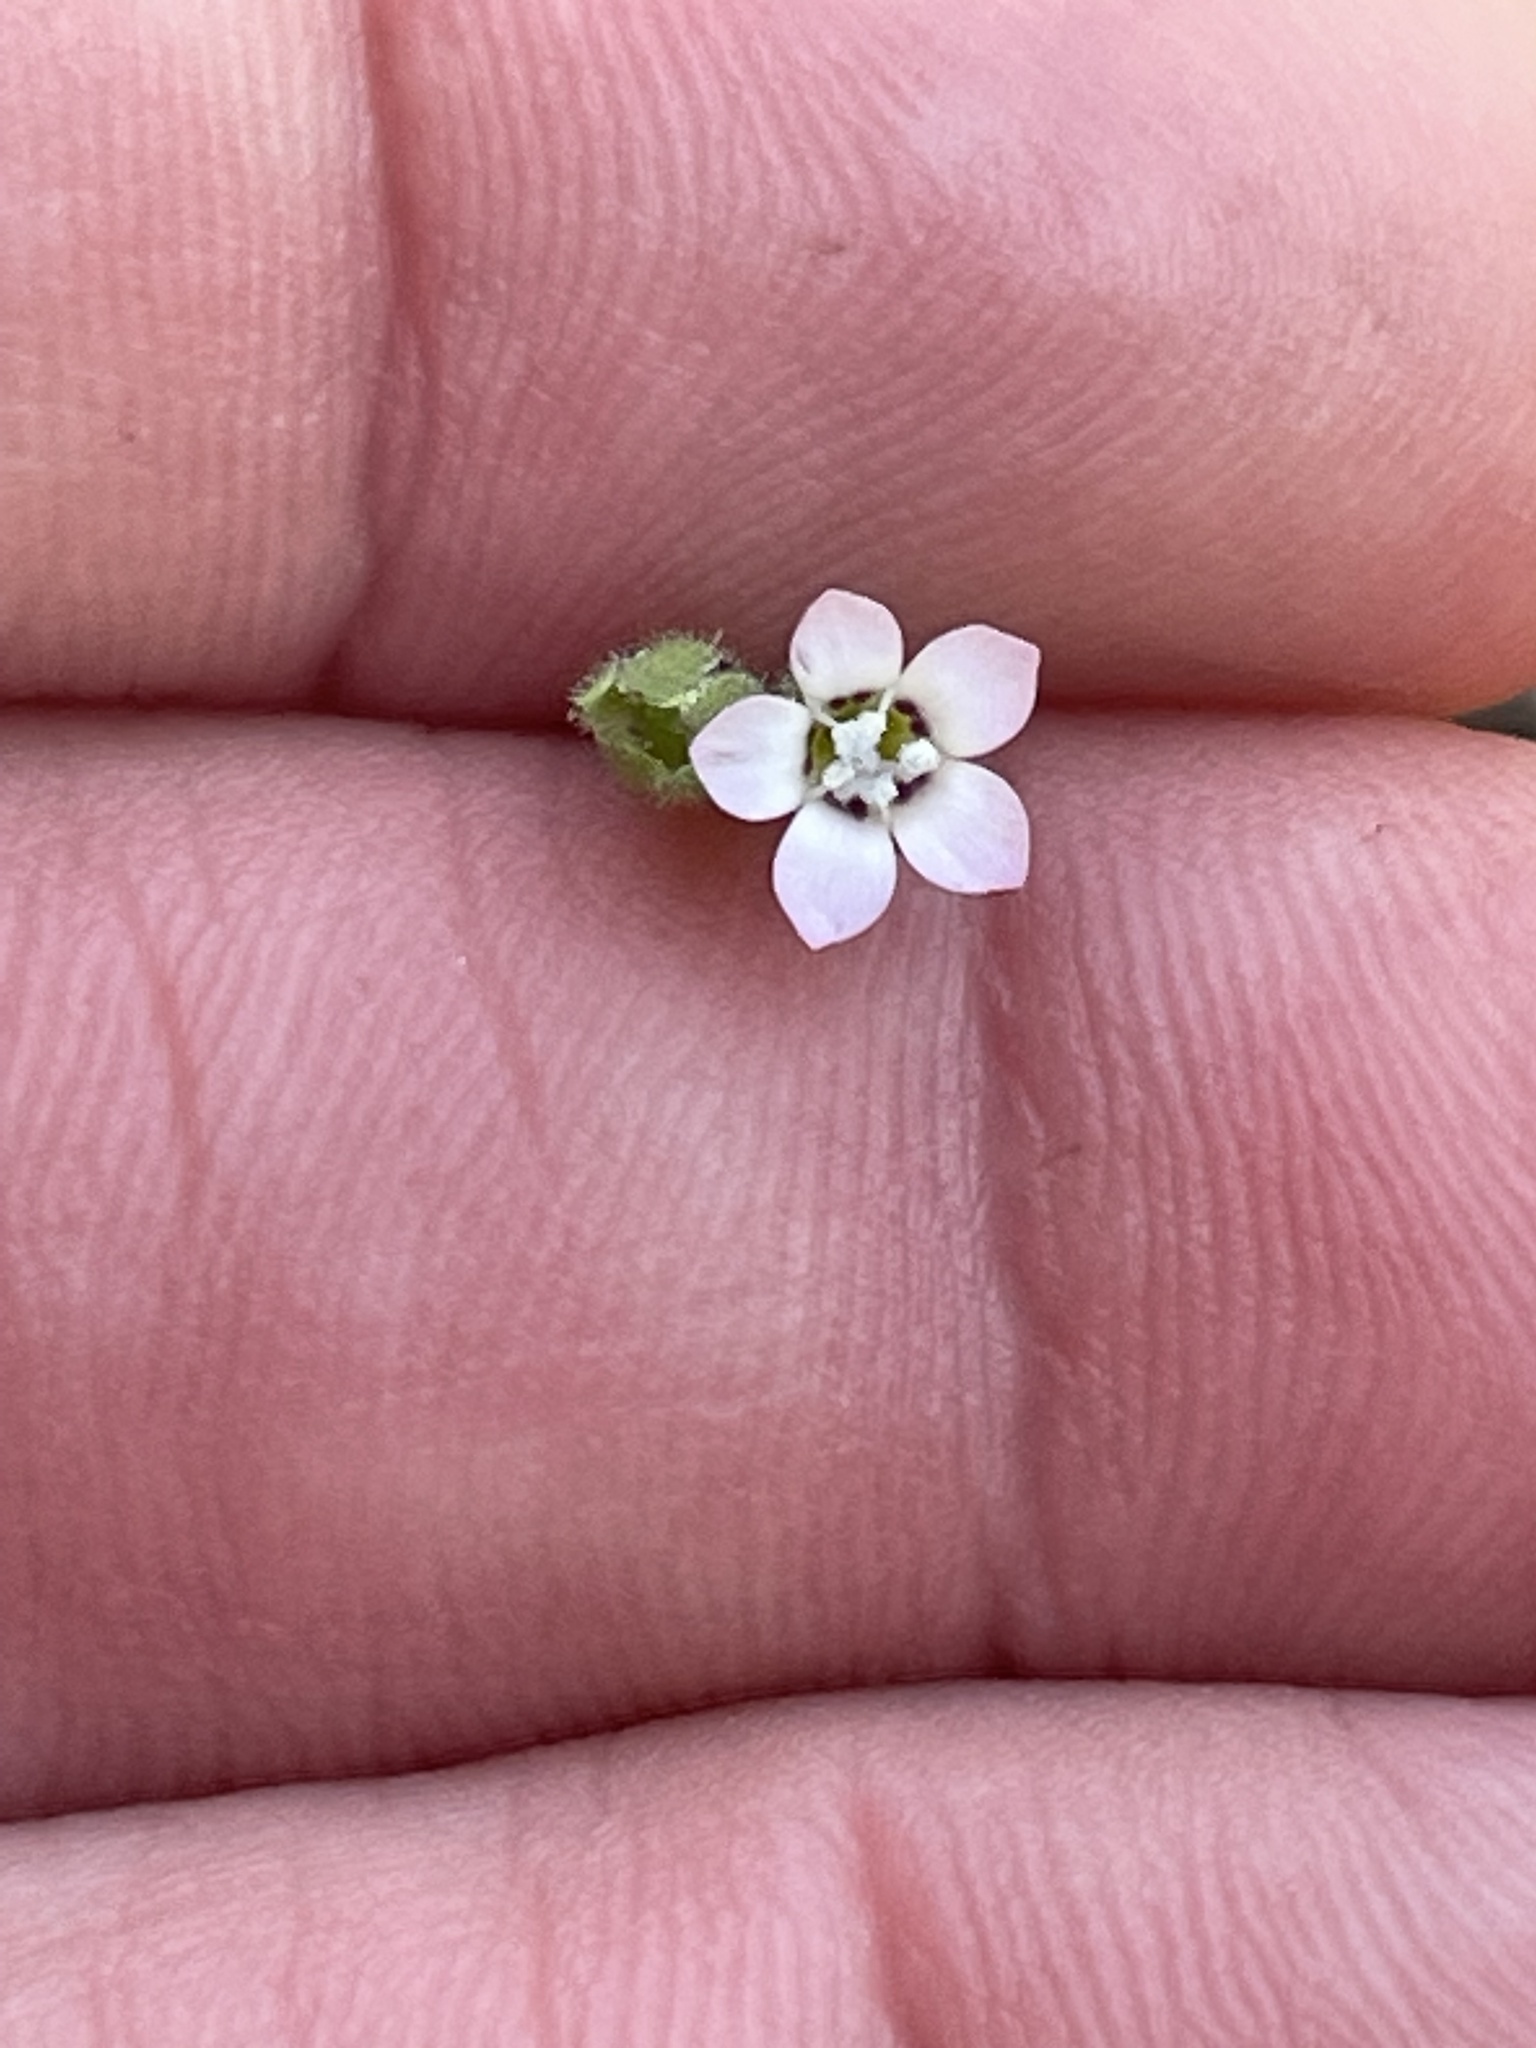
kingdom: Plantae
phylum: Tracheophyta
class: Magnoliopsida
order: Ericales
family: Polemoniaceae
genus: Gilia
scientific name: Gilia clivorum
